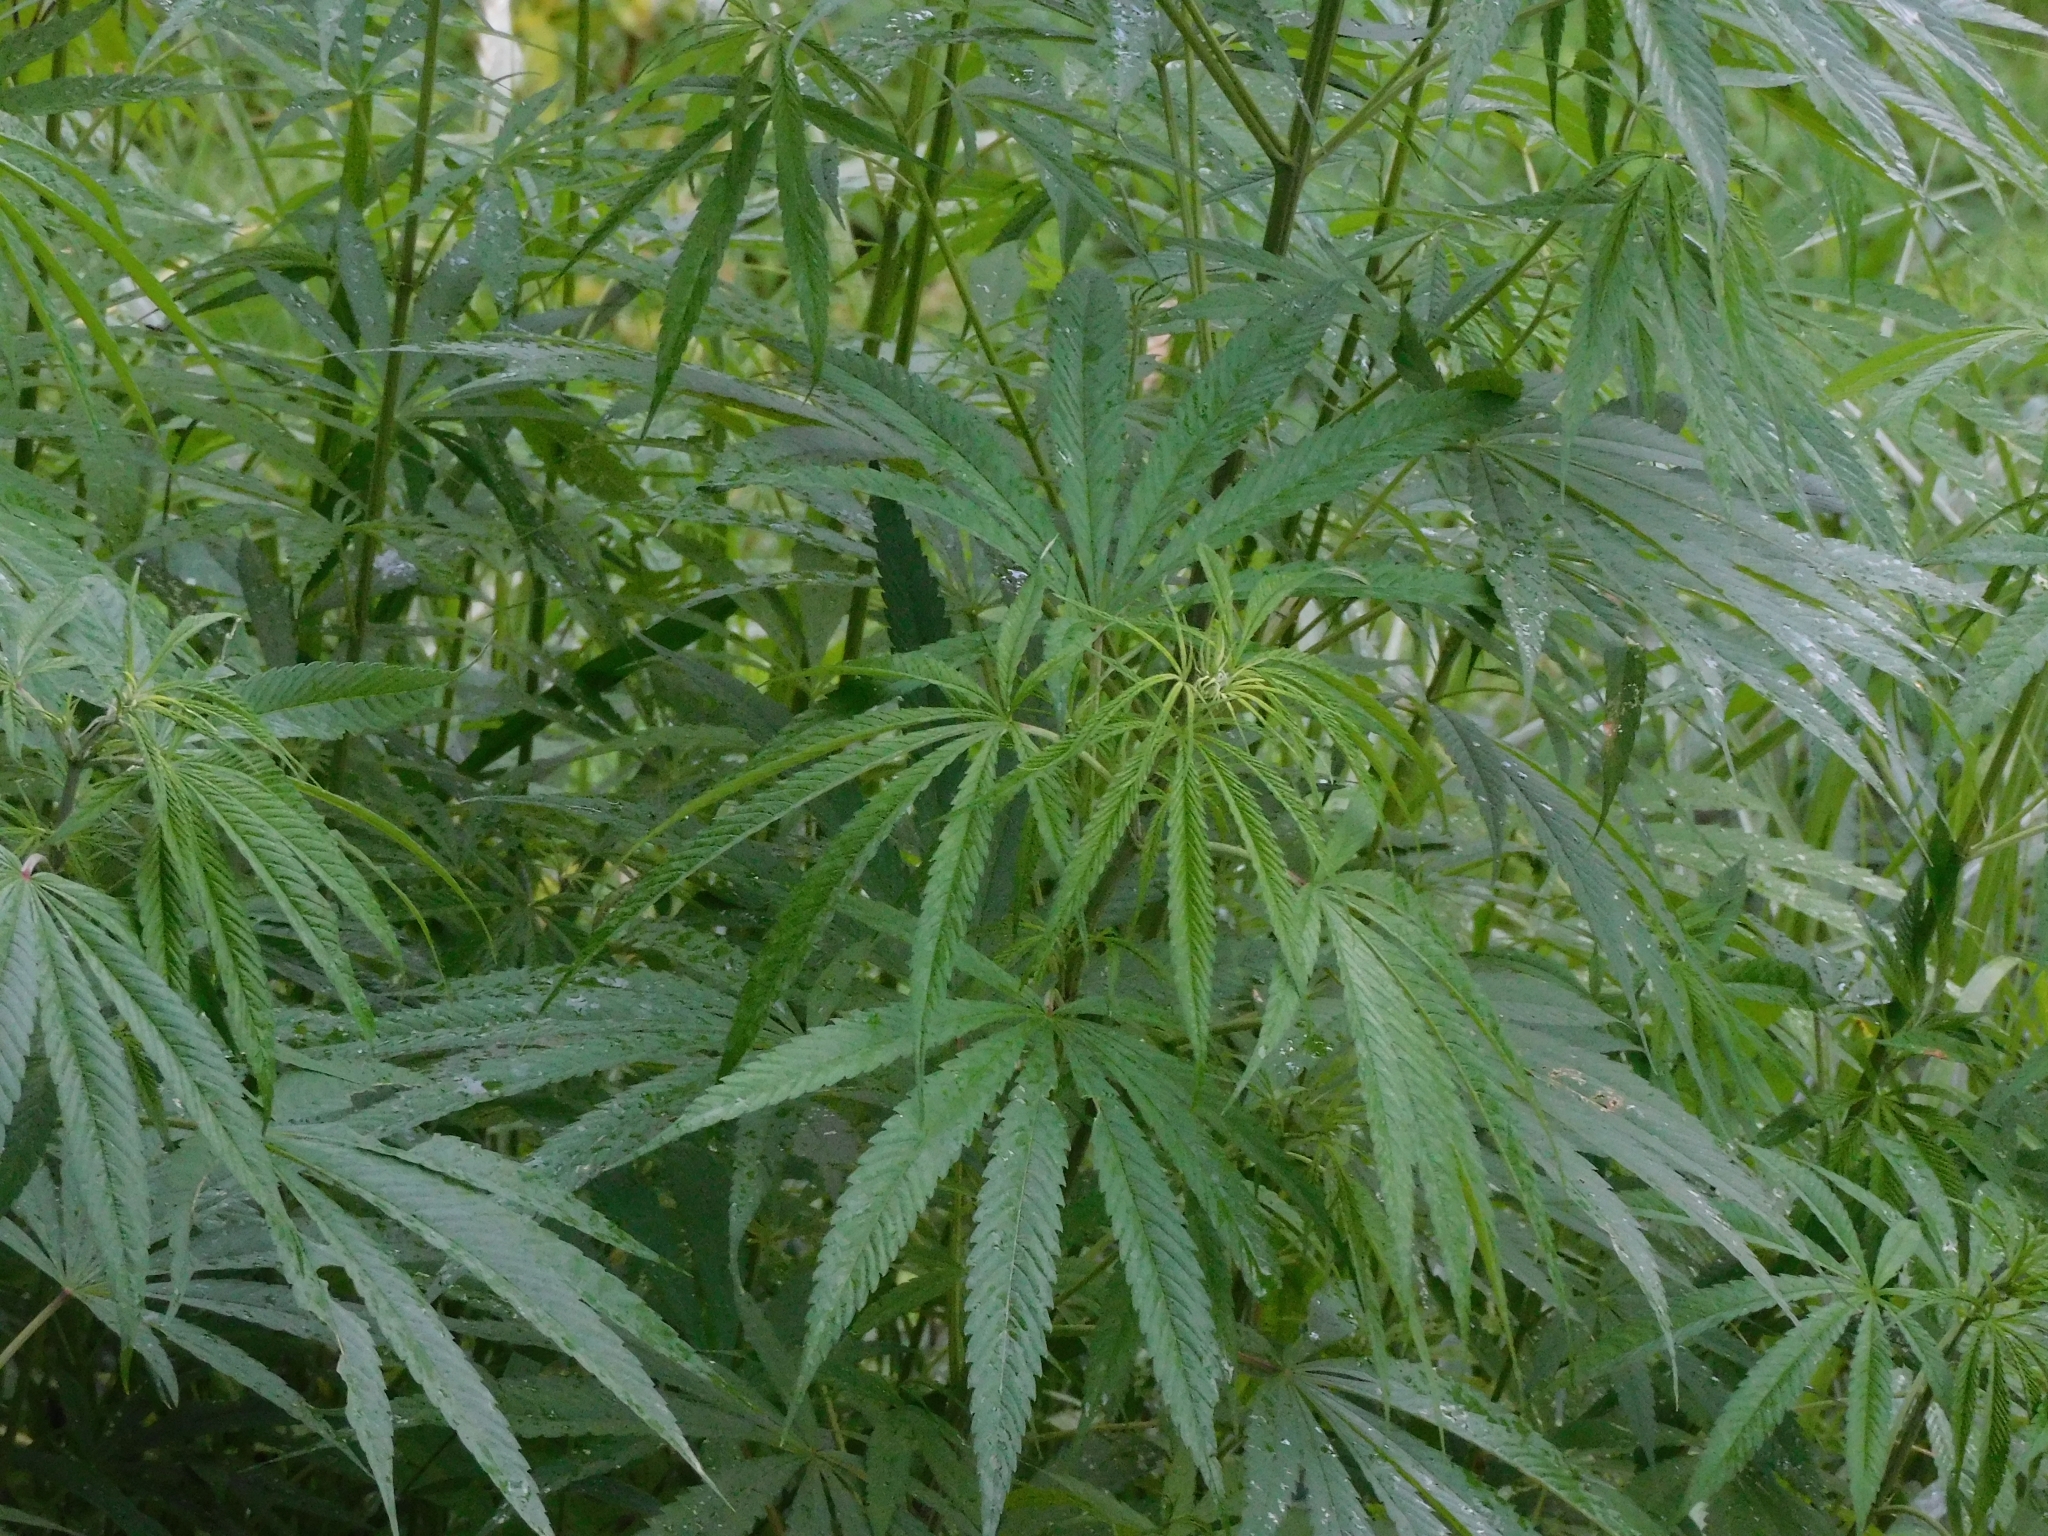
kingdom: Plantae
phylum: Tracheophyta
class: Magnoliopsida
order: Rosales
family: Cannabaceae
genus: Cannabis
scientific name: Cannabis sativa
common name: Hemp
